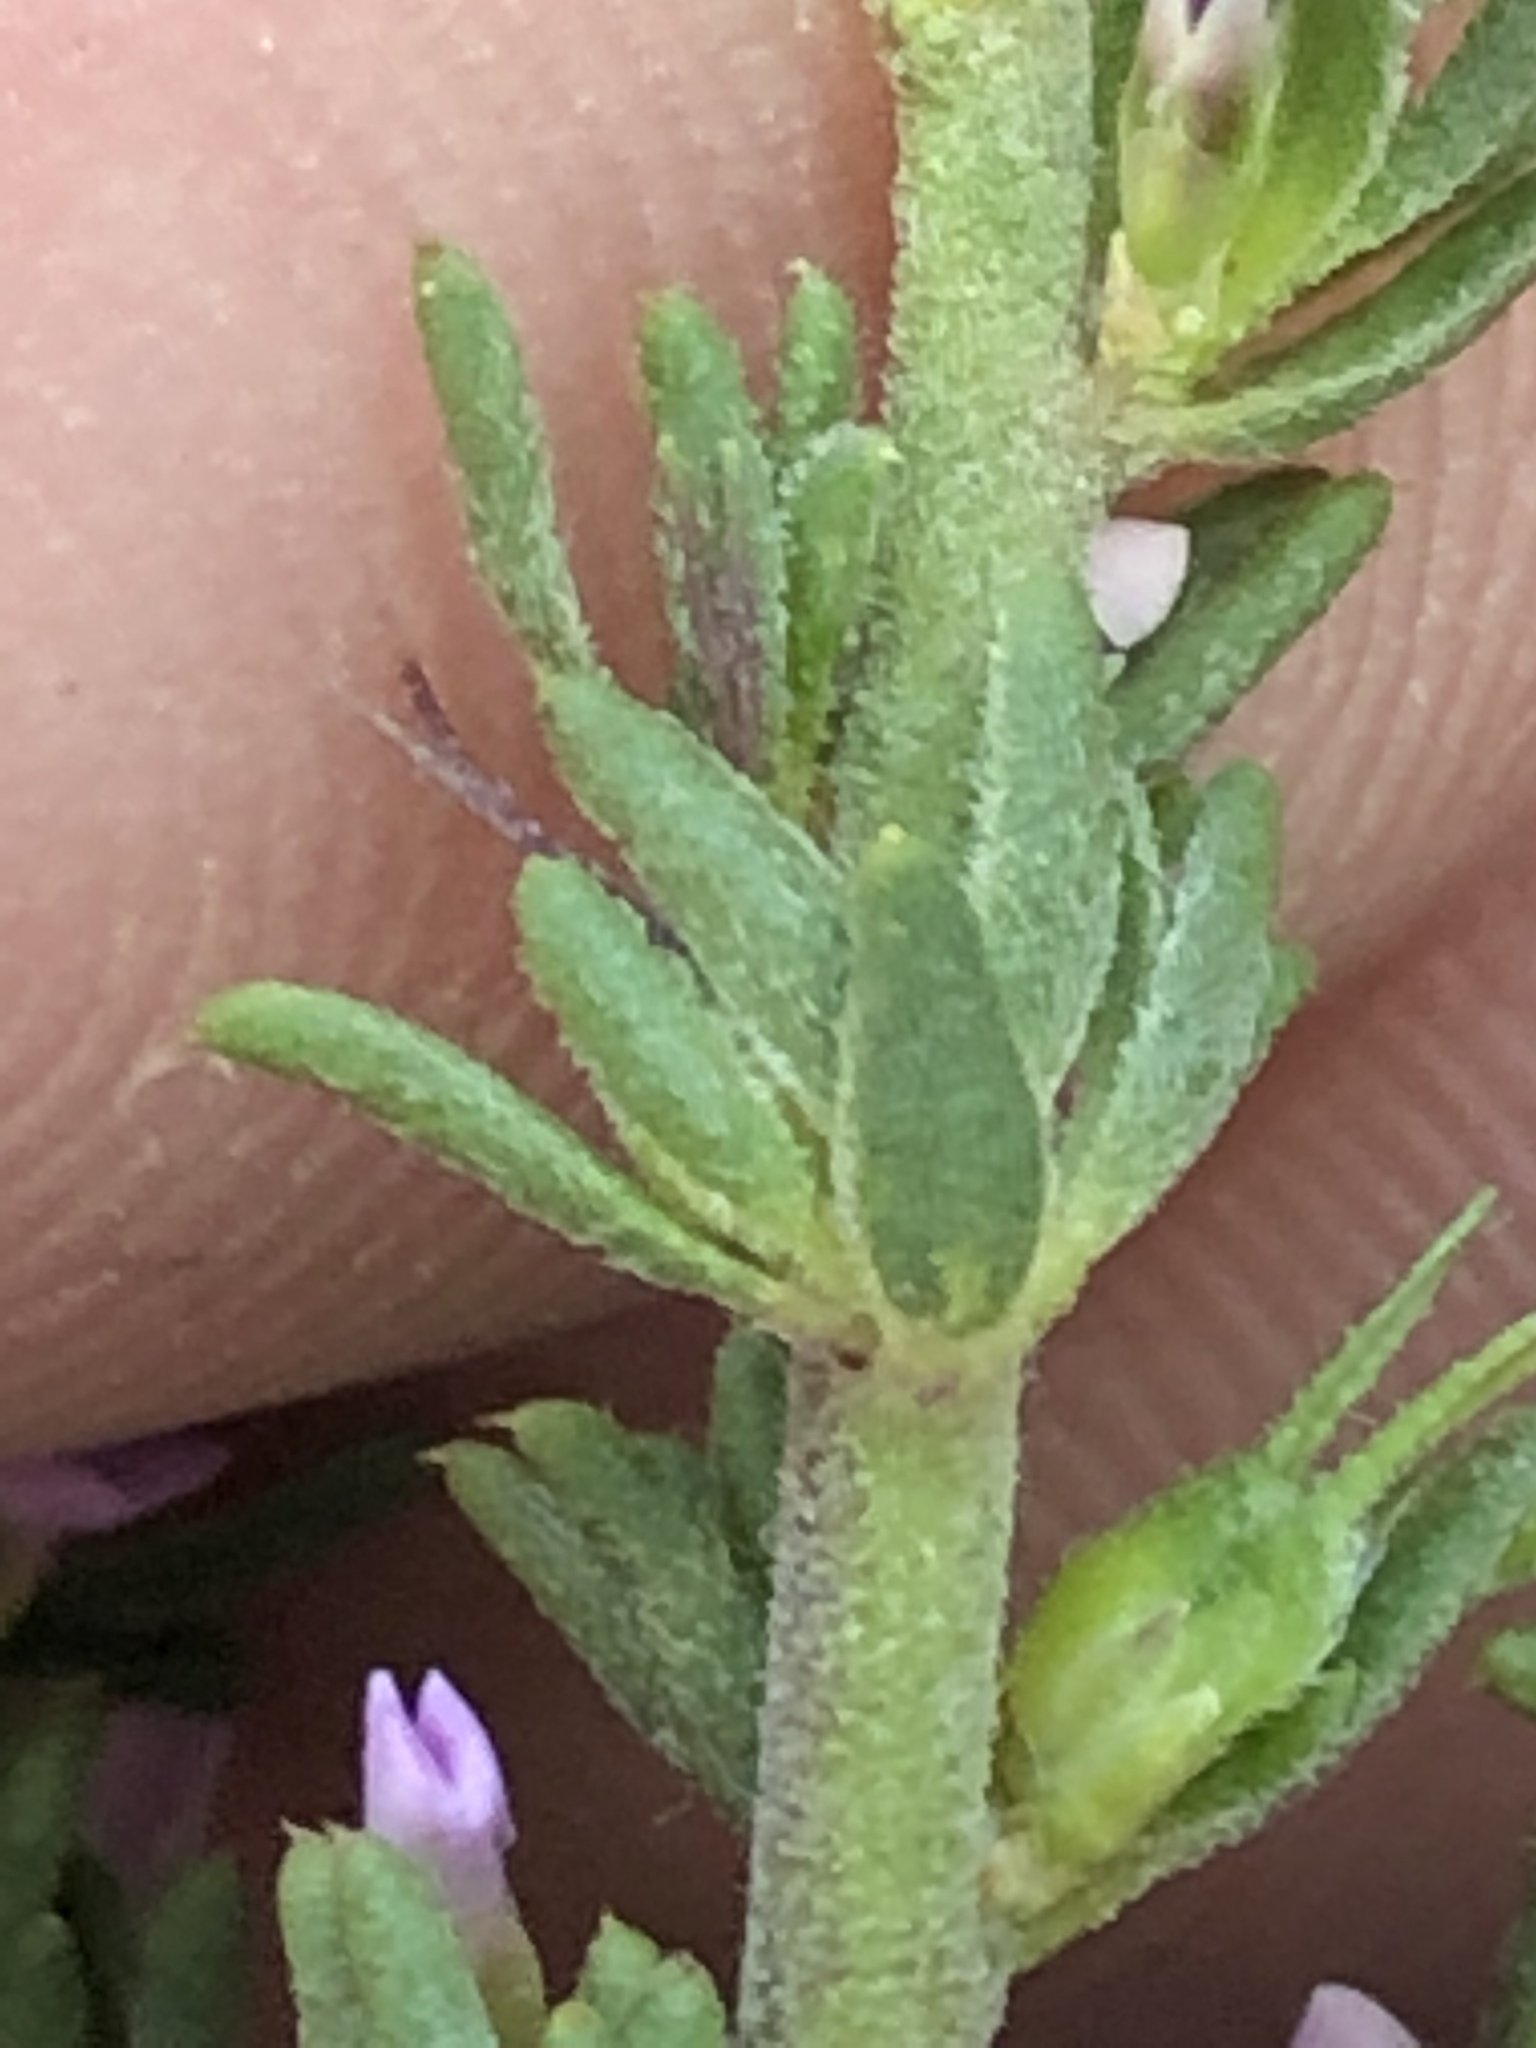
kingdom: Plantae
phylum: Tracheophyta
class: Magnoliopsida
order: Fabales
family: Polygalaceae
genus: Muraltia
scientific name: Muraltia alopecuroides
